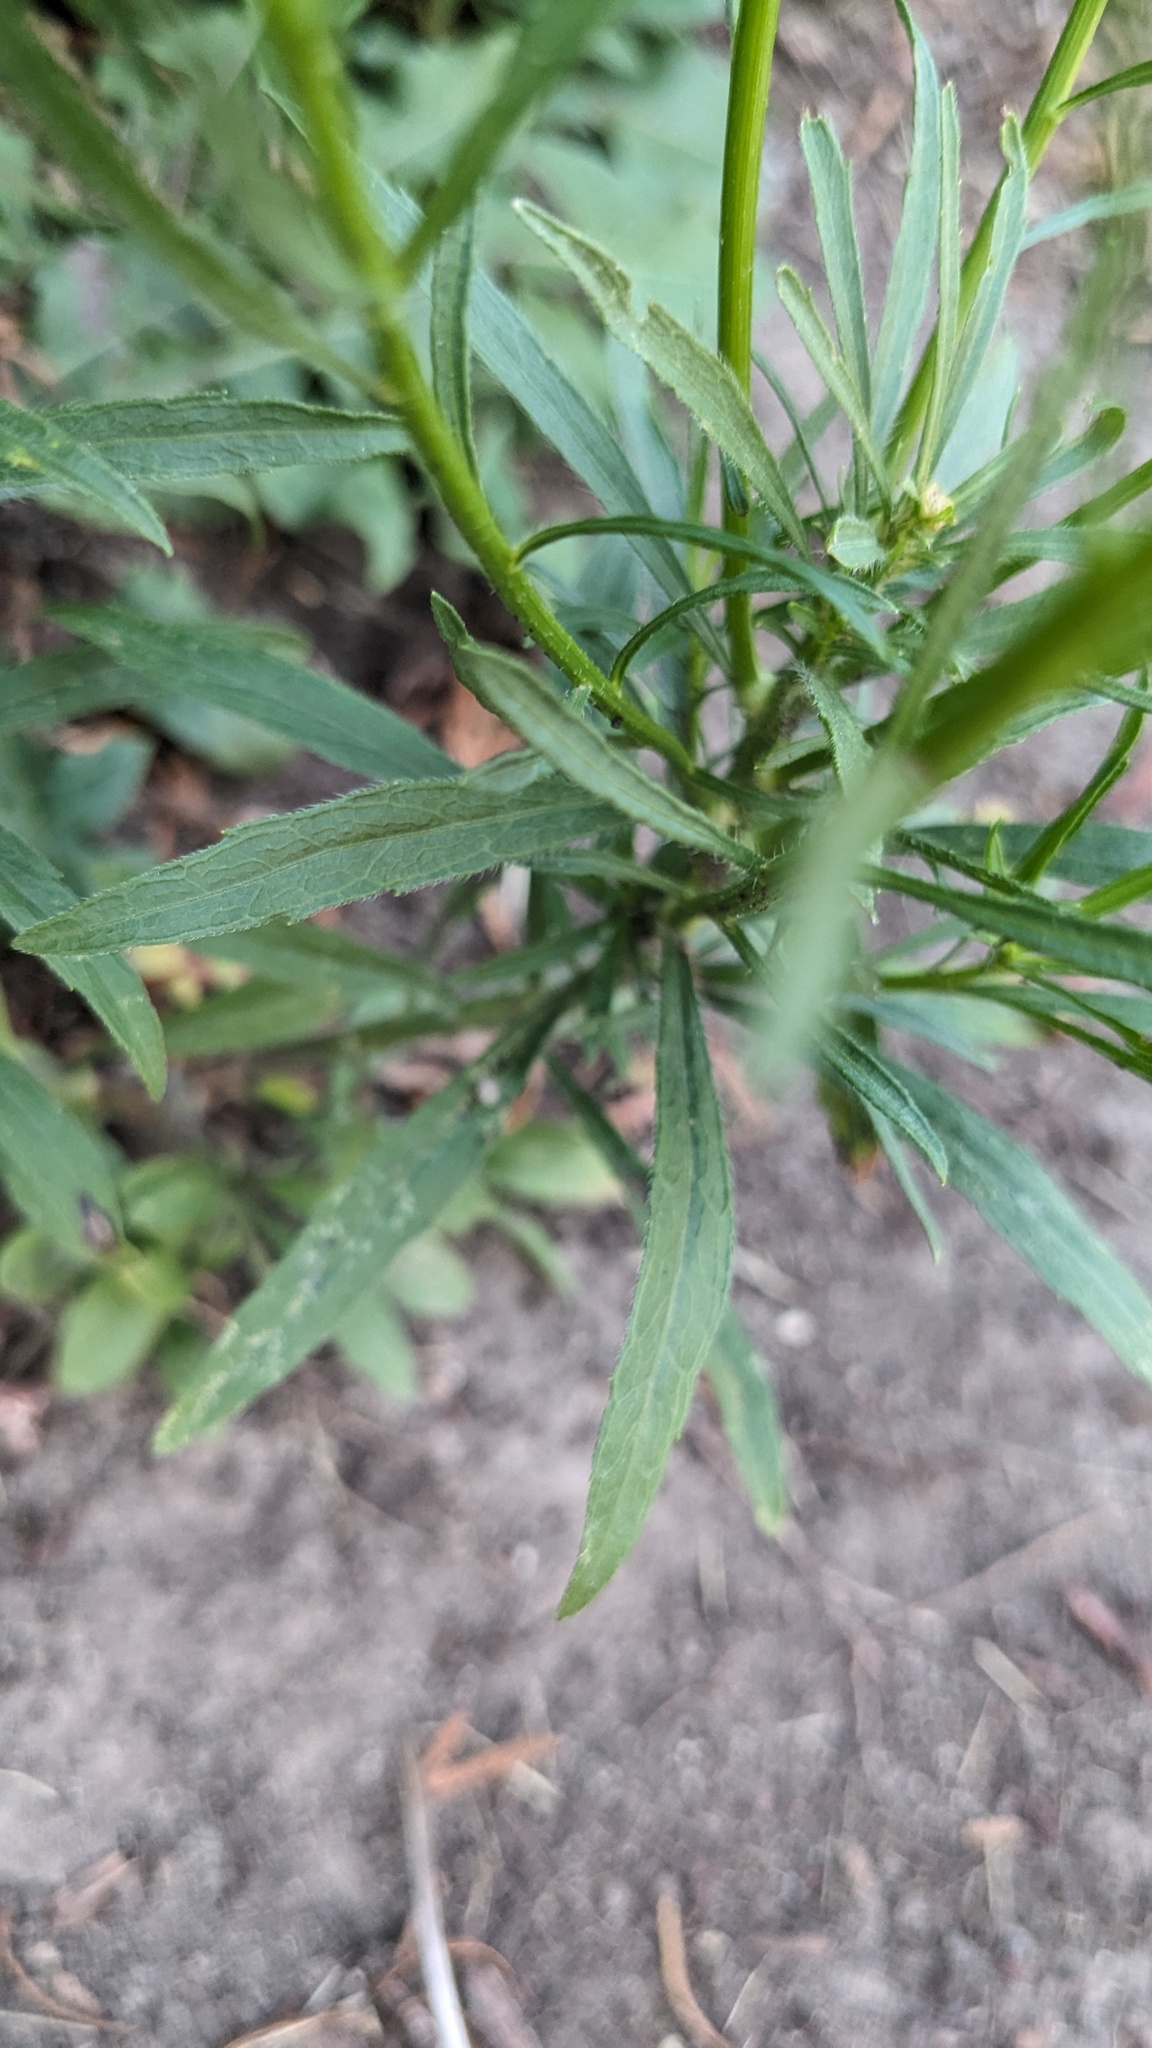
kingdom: Plantae
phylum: Tracheophyta
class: Magnoliopsida
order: Asterales
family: Asteraceae
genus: Erigeron
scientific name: Erigeron canadensis
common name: Canadian fleabane
